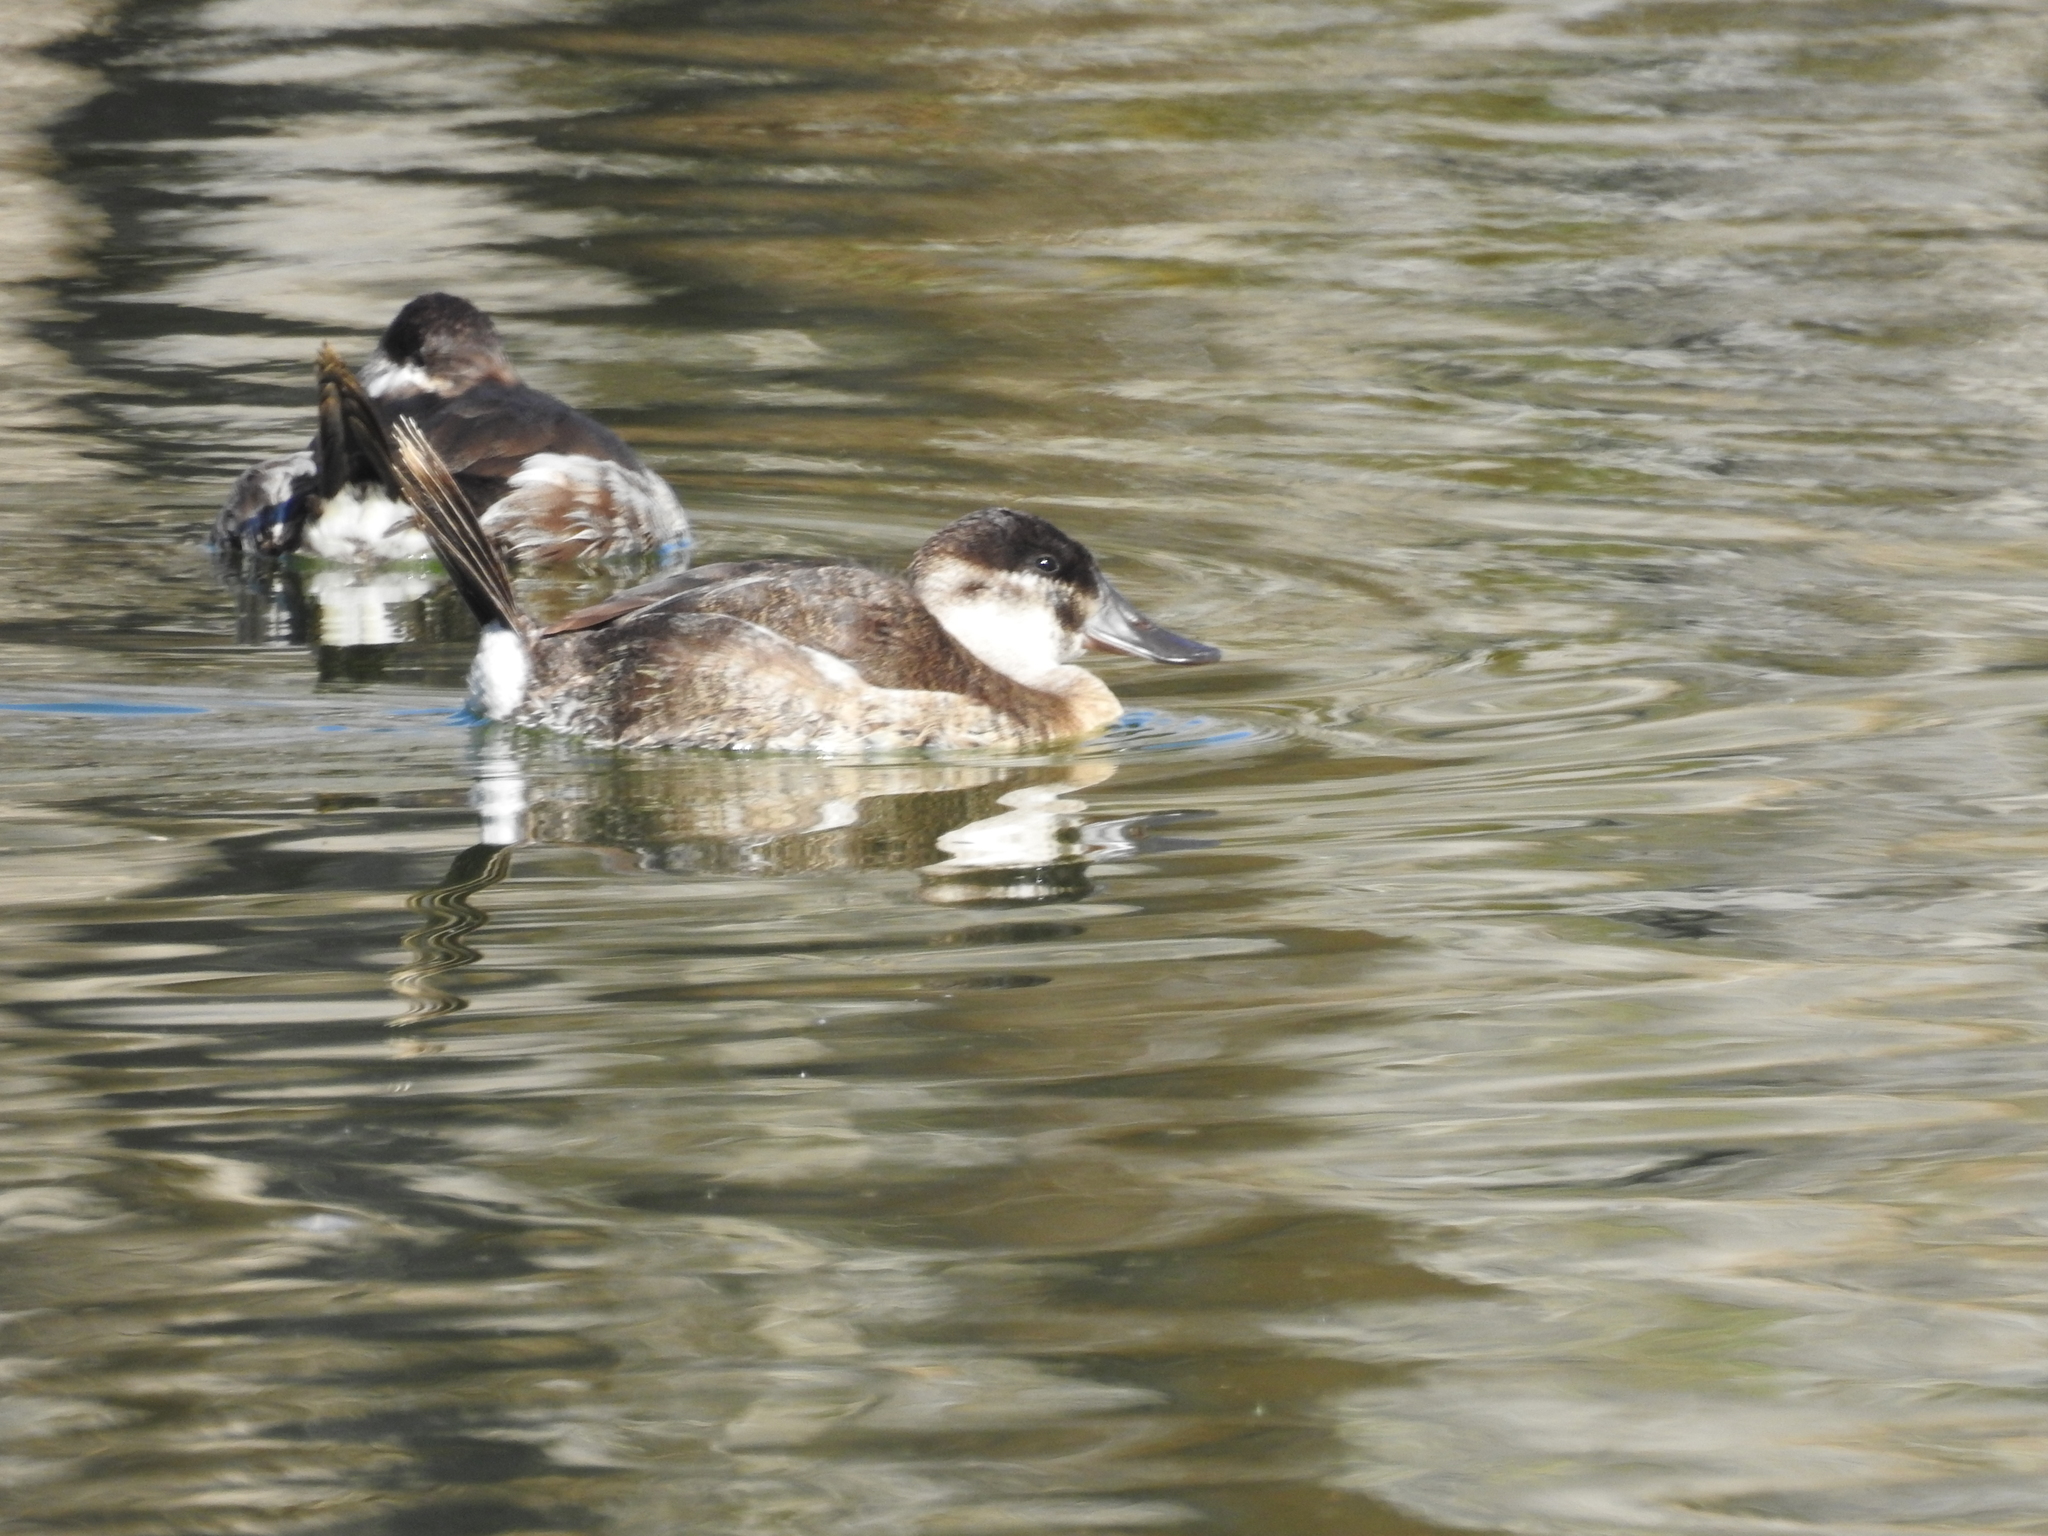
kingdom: Animalia
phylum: Chordata
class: Aves
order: Anseriformes
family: Anatidae
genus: Oxyura
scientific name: Oxyura jamaicensis
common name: Ruddy duck
